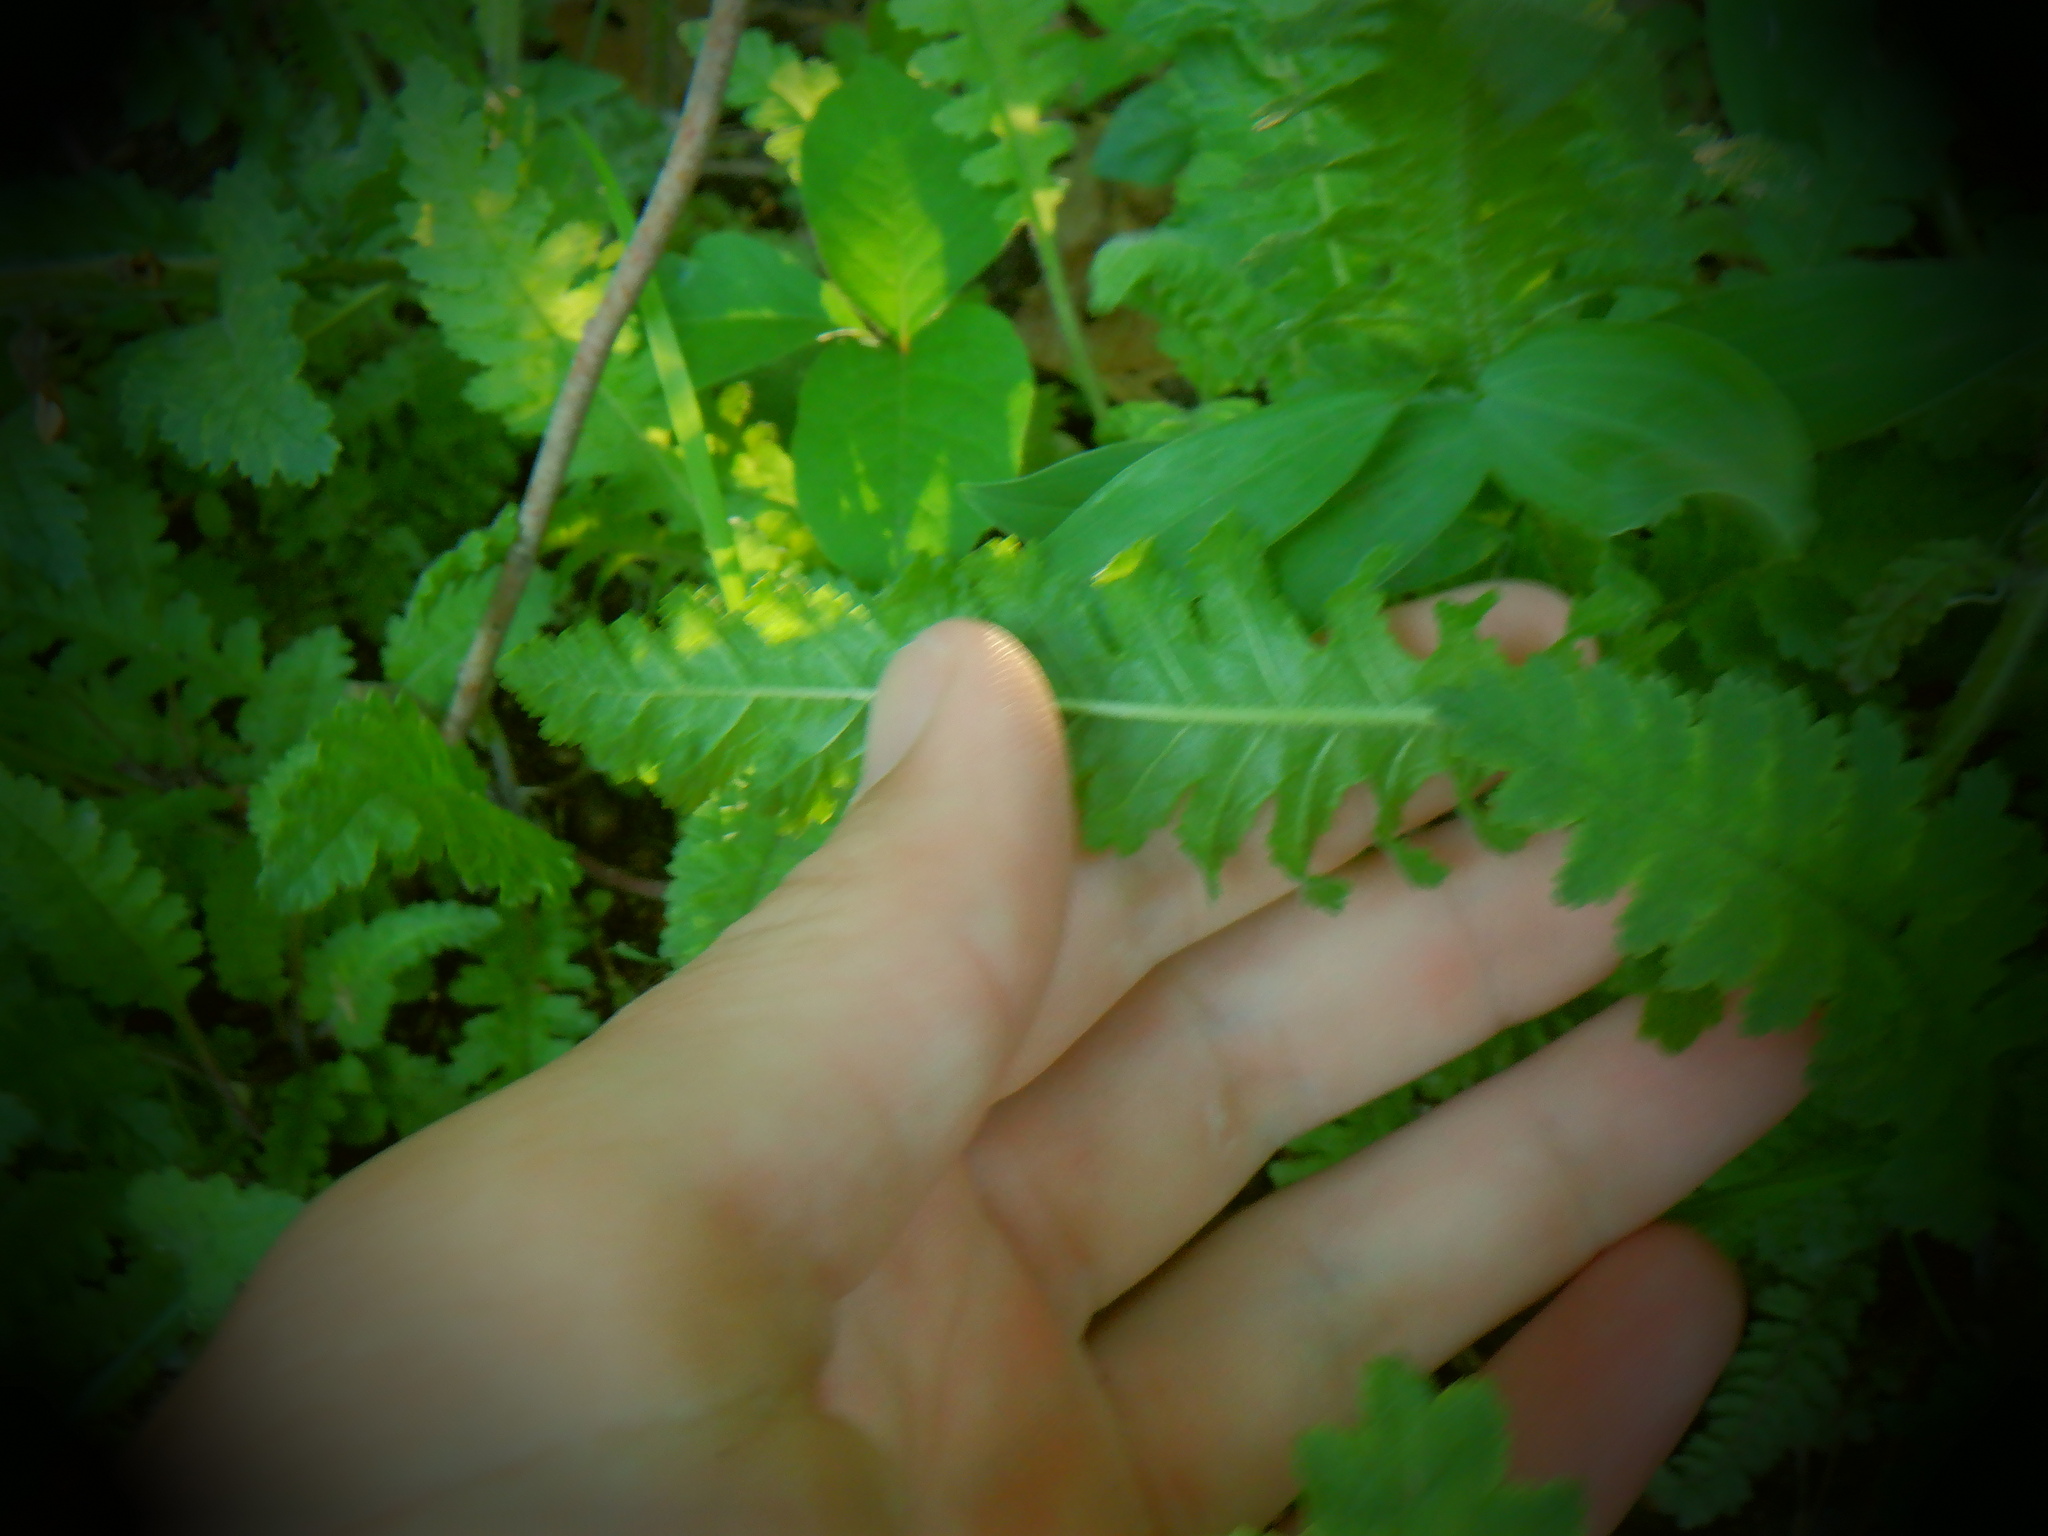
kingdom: Plantae
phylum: Tracheophyta
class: Magnoliopsida
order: Lamiales
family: Orobanchaceae
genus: Pedicularis
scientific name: Pedicularis canadensis
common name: Early lousewort
